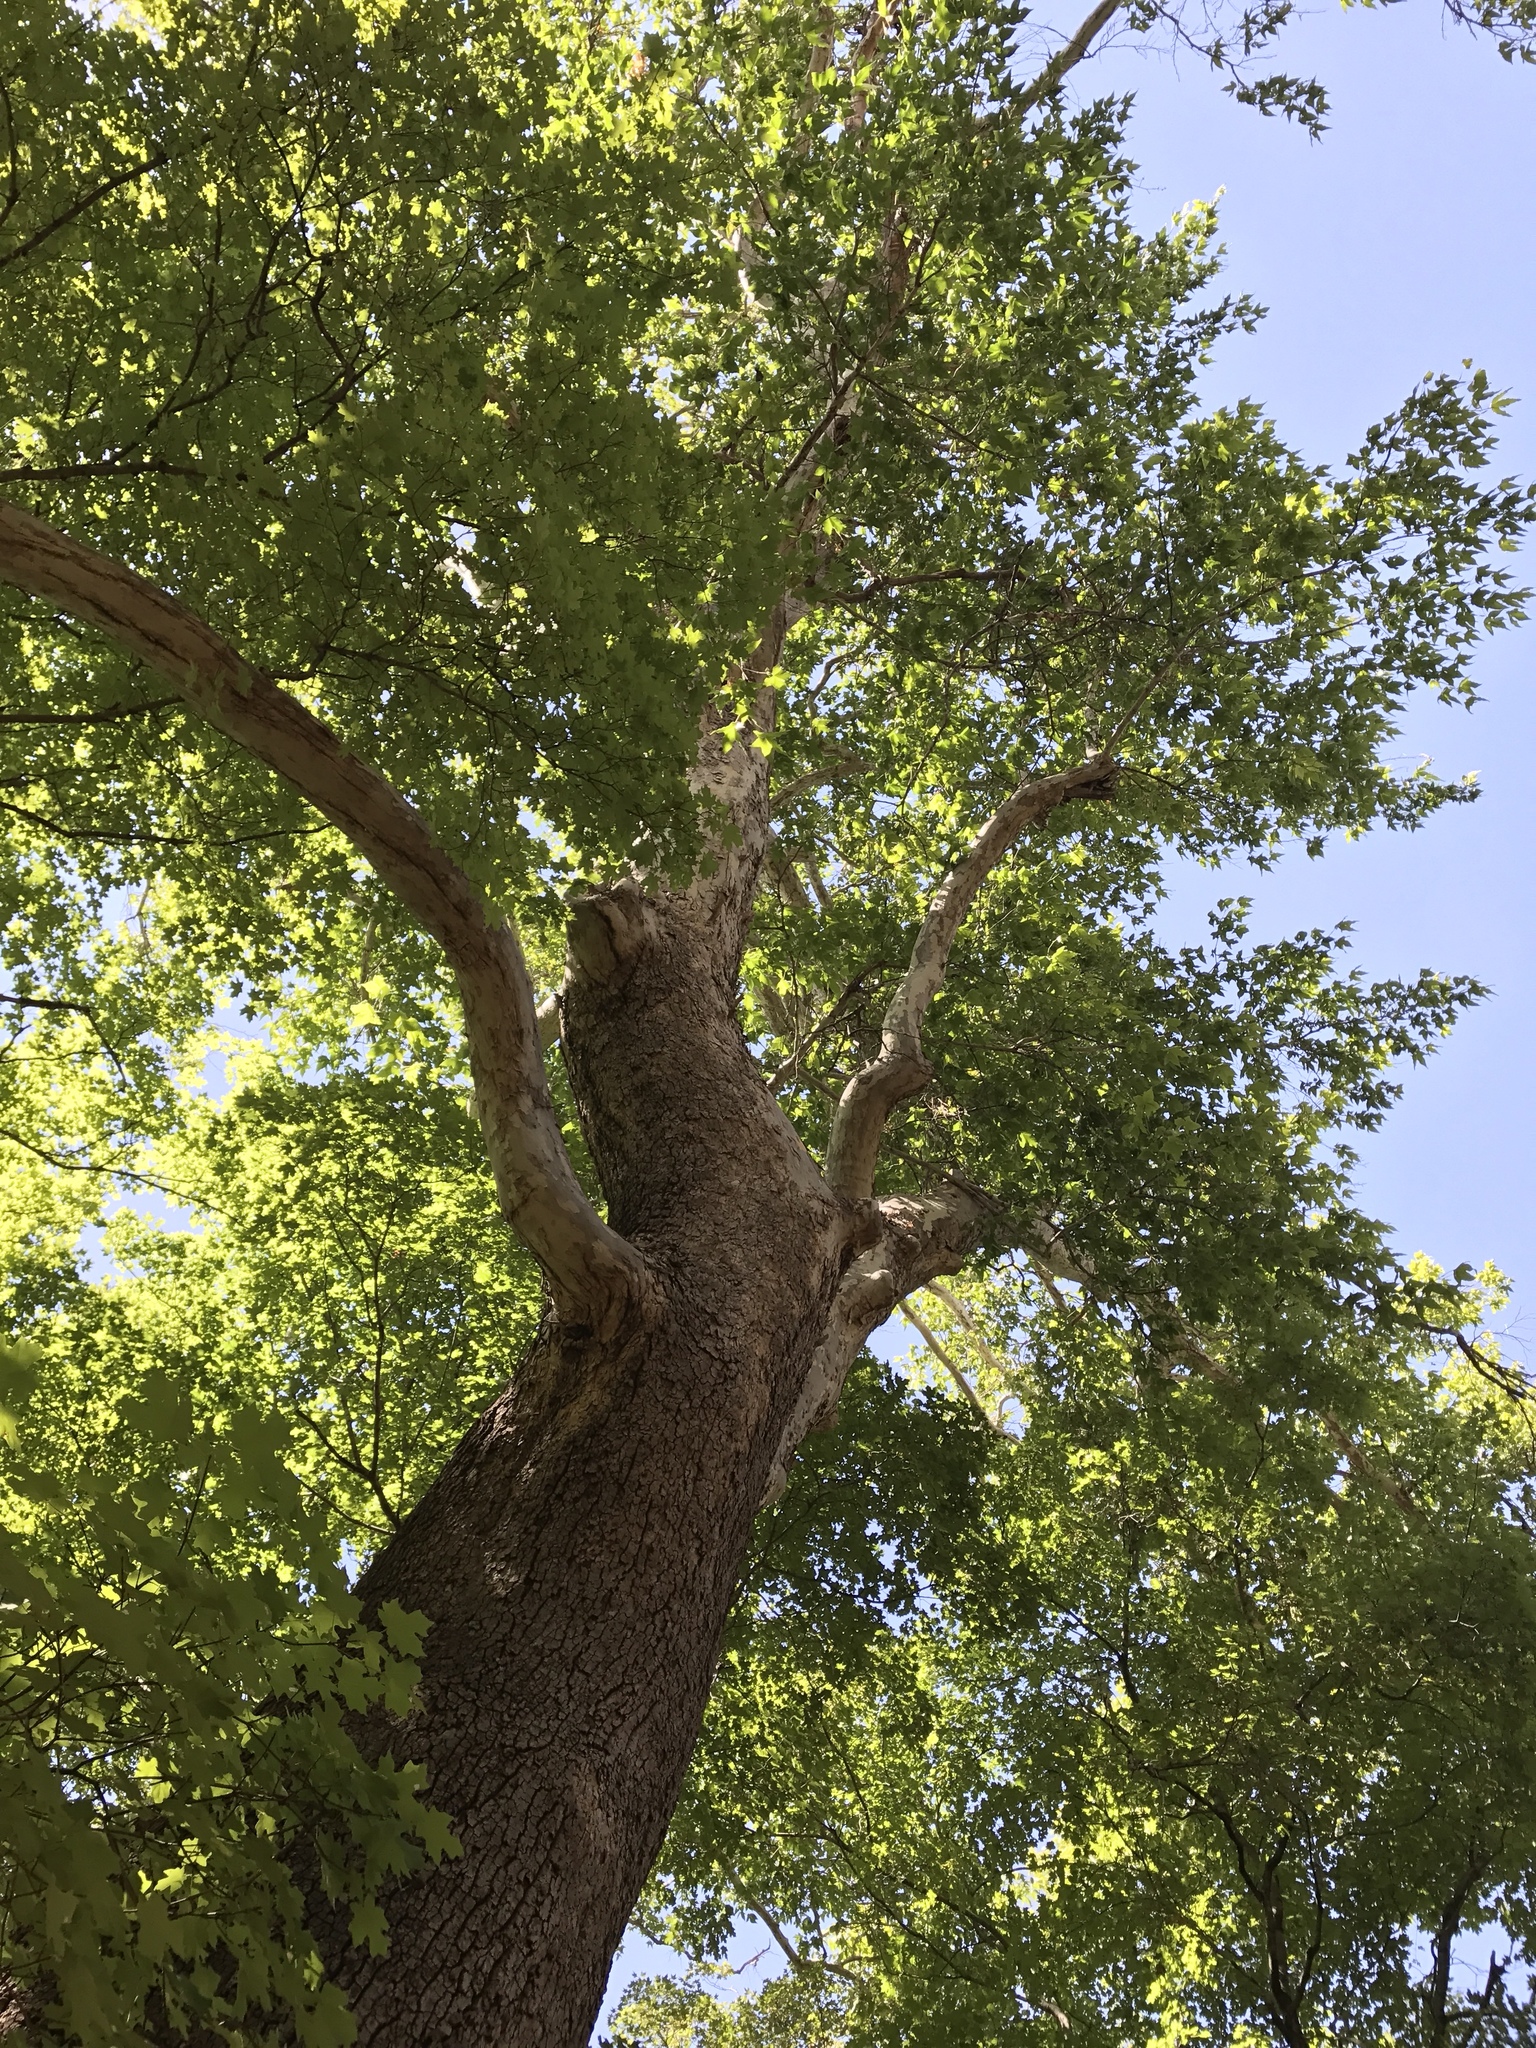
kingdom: Plantae
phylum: Tracheophyta
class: Magnoliopsida
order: Proteales
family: Platanaceae
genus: Platanus
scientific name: Platanus wrightii
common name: Arizona sycamore
